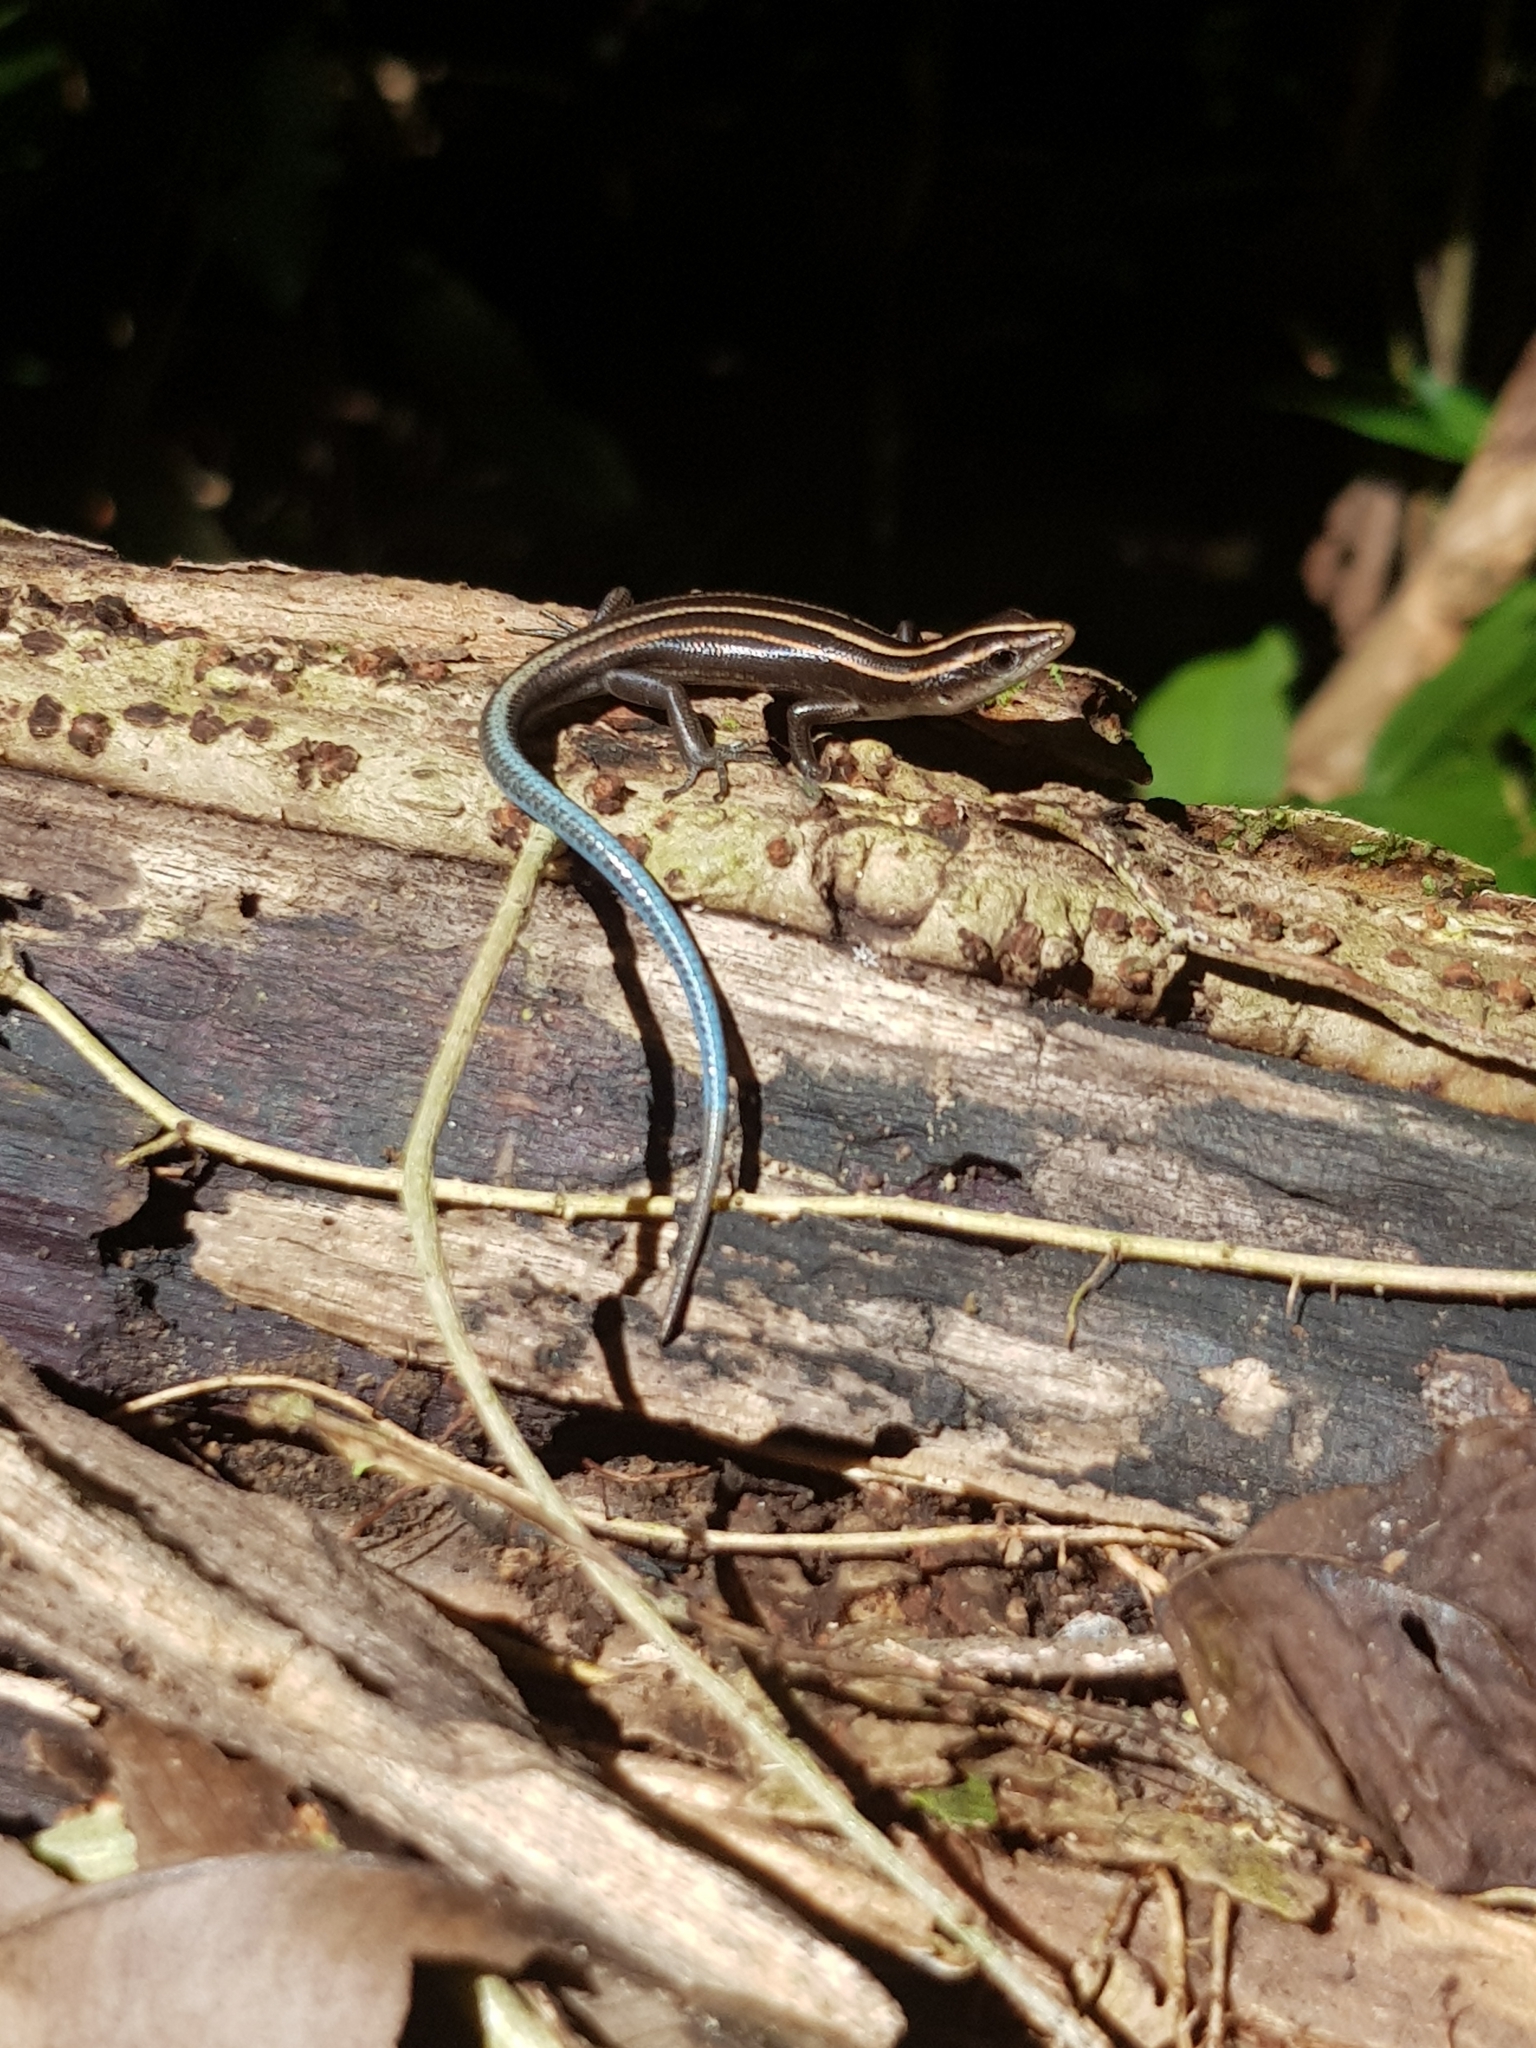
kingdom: Animalia
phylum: Chordata
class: Squamata
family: Scincidae
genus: Emoia
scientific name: Emoia impar
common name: Azure-tailed skink
